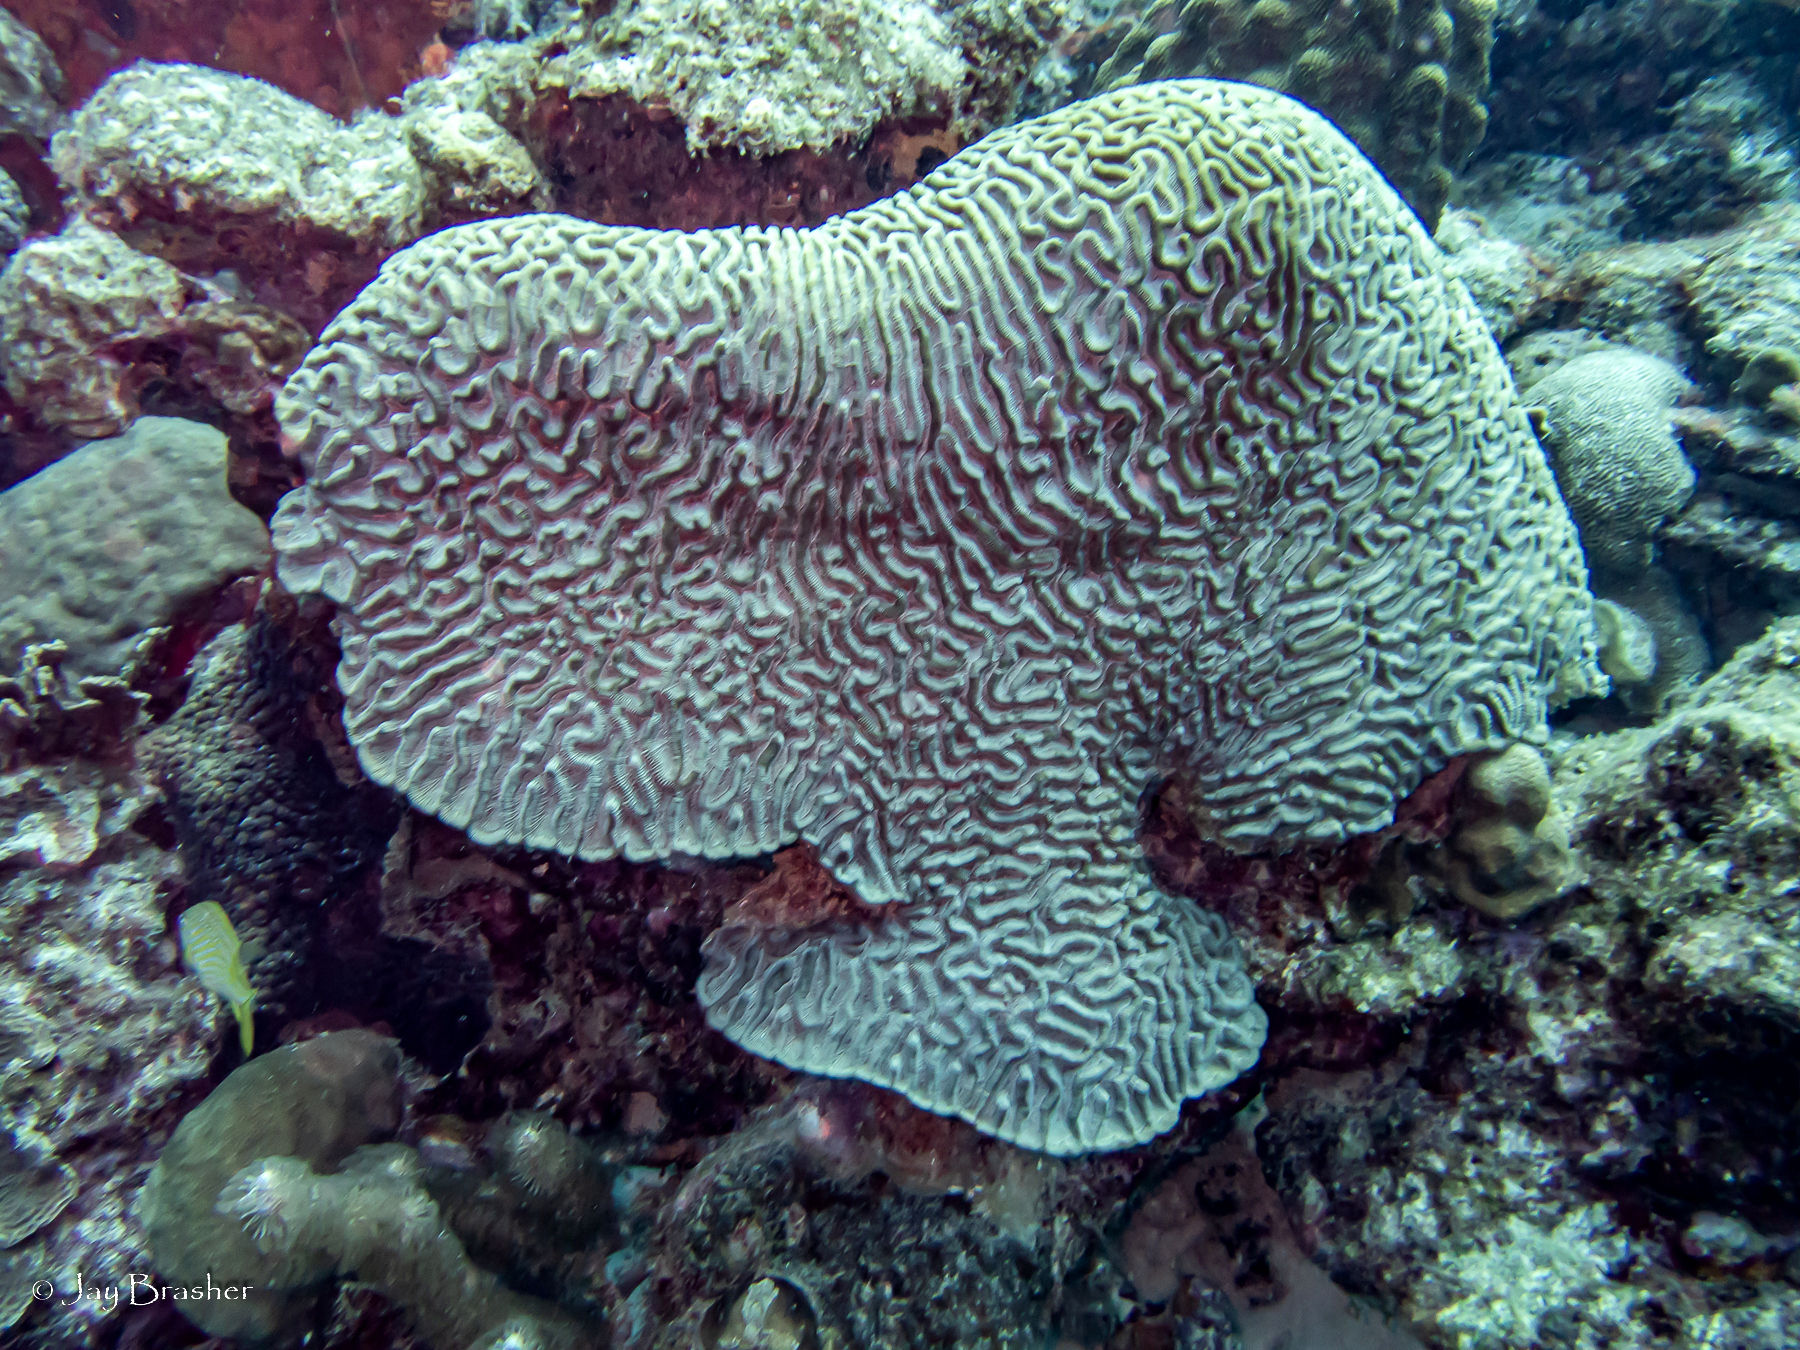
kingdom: Animalia
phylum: Cnidaria
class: Anthozoa
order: Scleractinia
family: Faviidae
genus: Colpophyllia
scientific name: Colpophyllia natans
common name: Boulder brain coral
